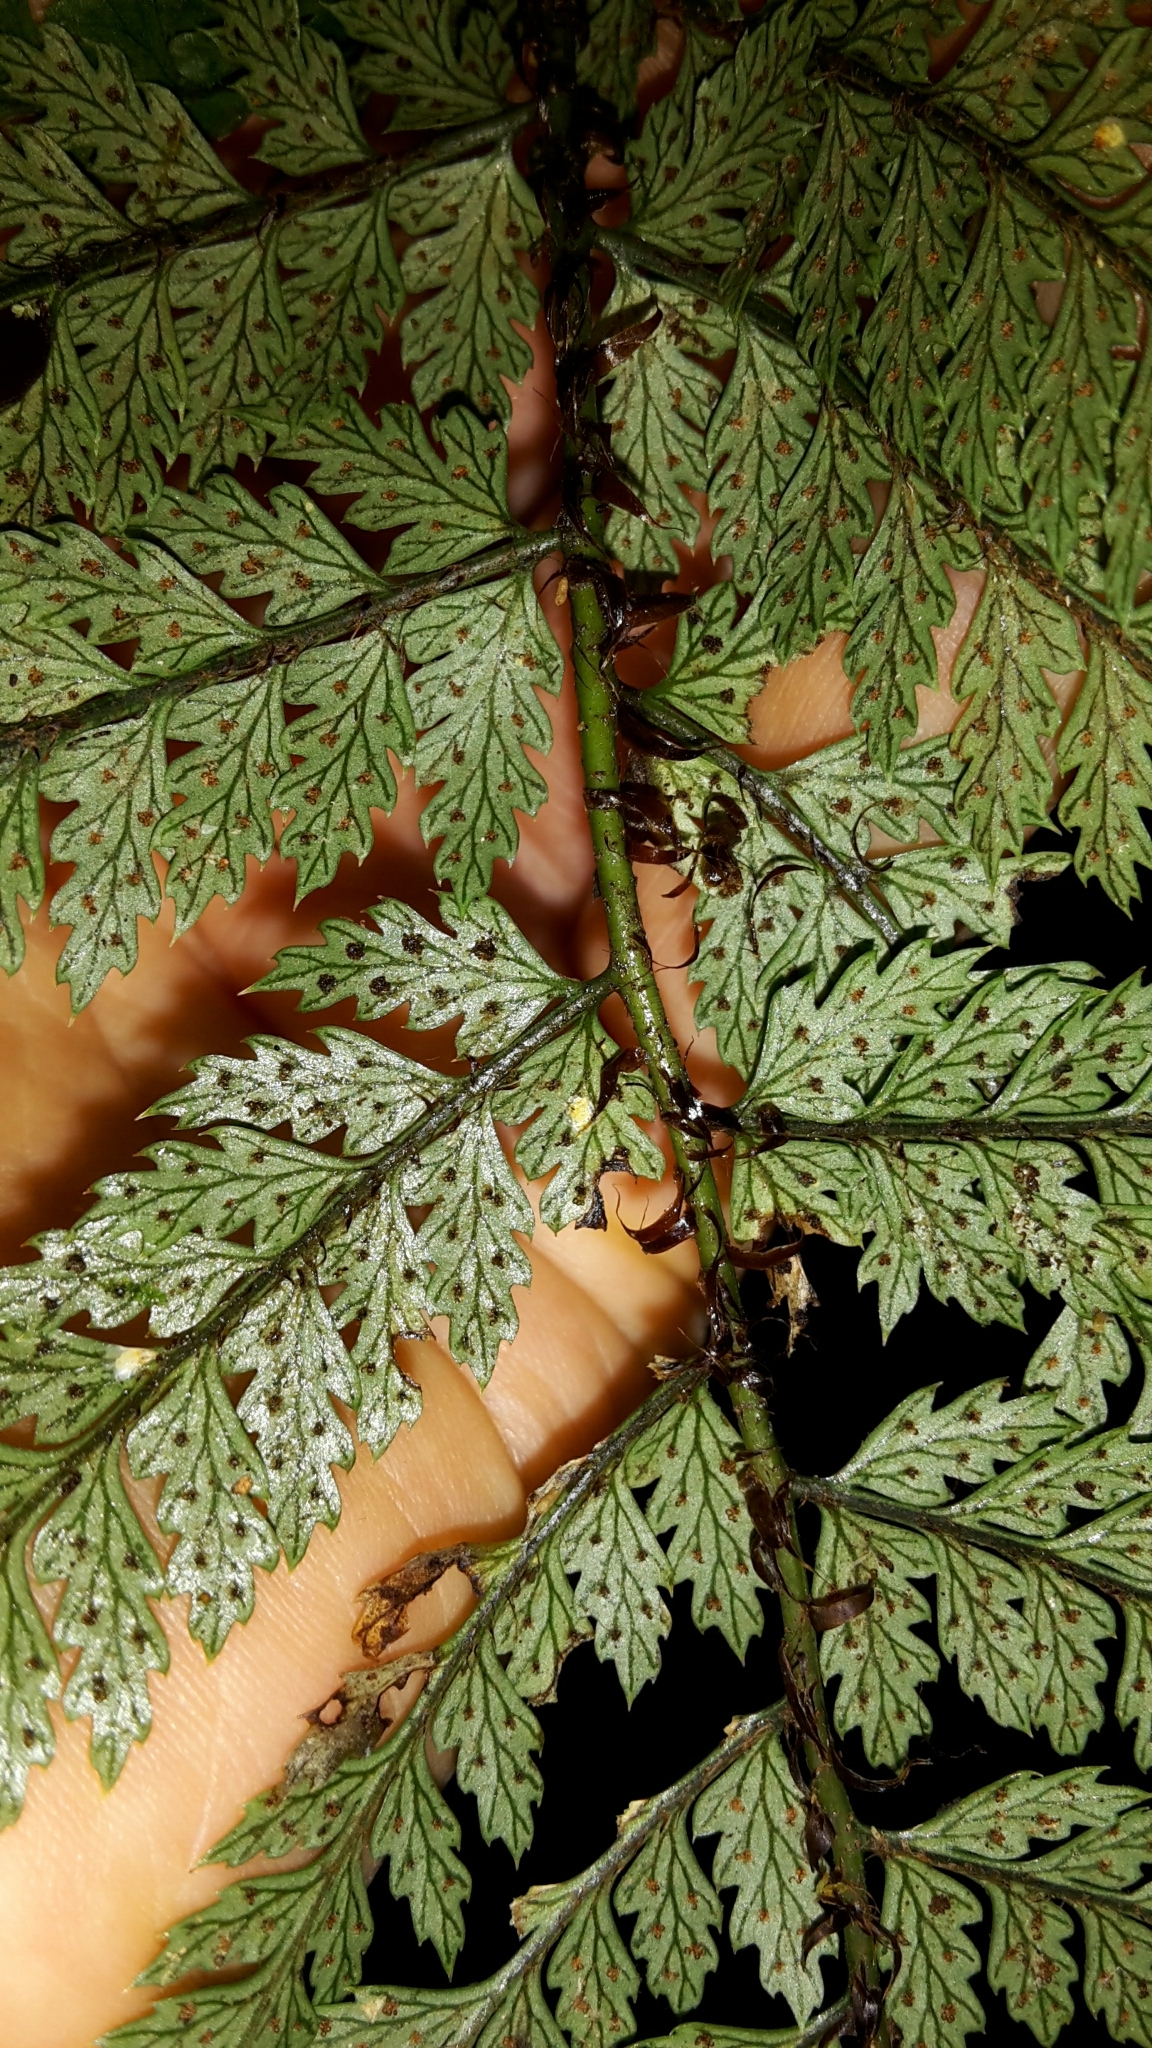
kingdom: Plantae
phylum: Tracheophyta
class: Polypodiopsida
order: Polypodiales
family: Dryopteridaceae
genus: Polystichum
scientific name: Polystichum silvaticum
